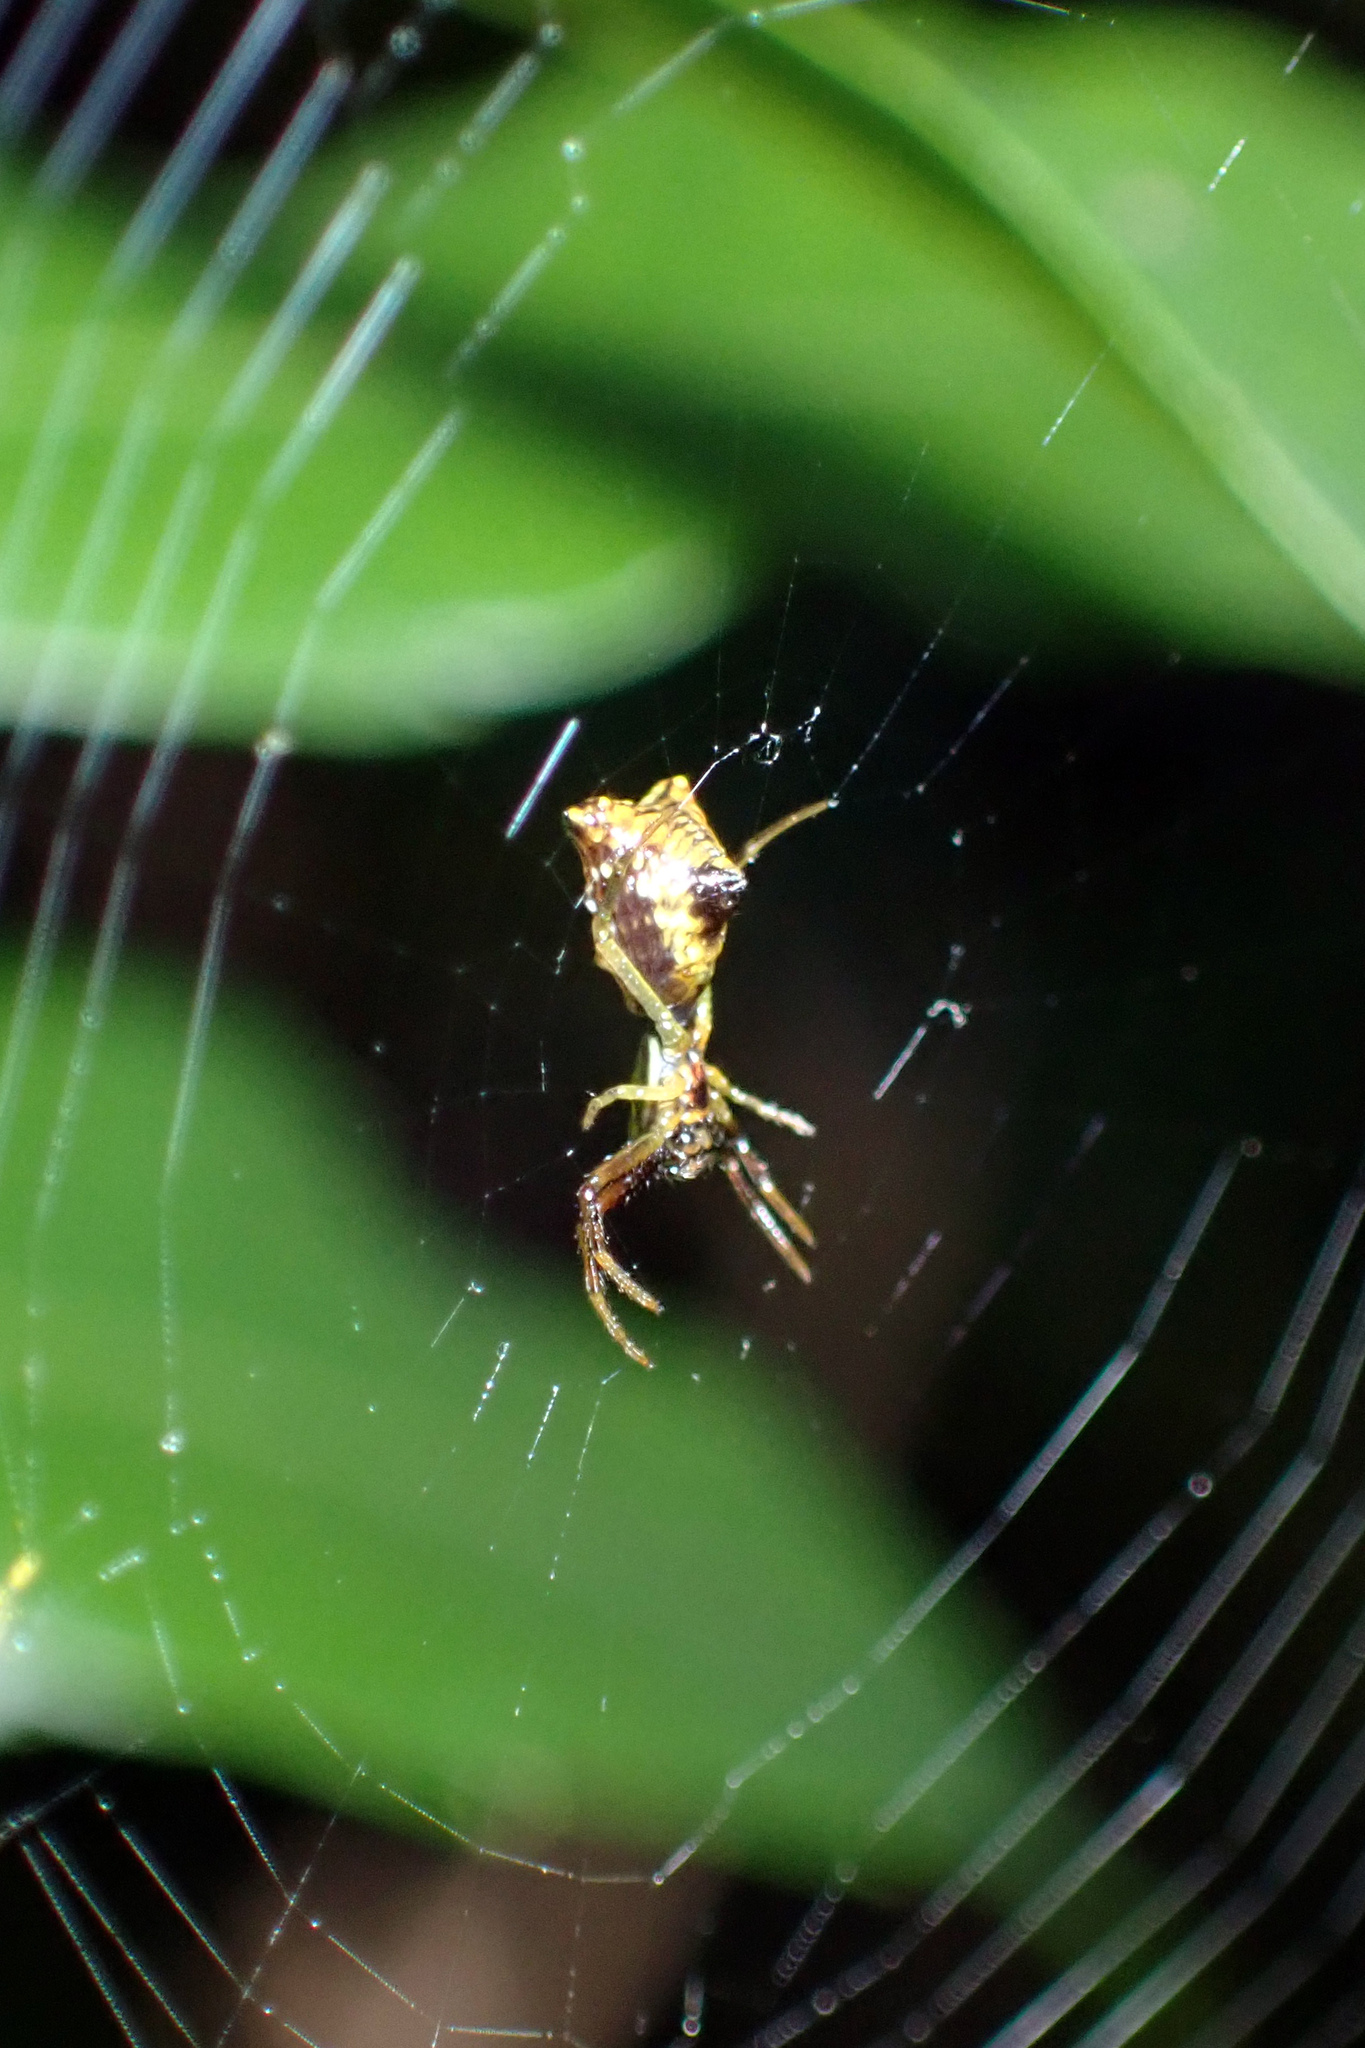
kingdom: Animalia
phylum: Arthropoda
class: Arachnida
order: Araneae
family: Araneidae
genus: Micrathena
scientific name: Micrathena sagittata
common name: Orb weavers
